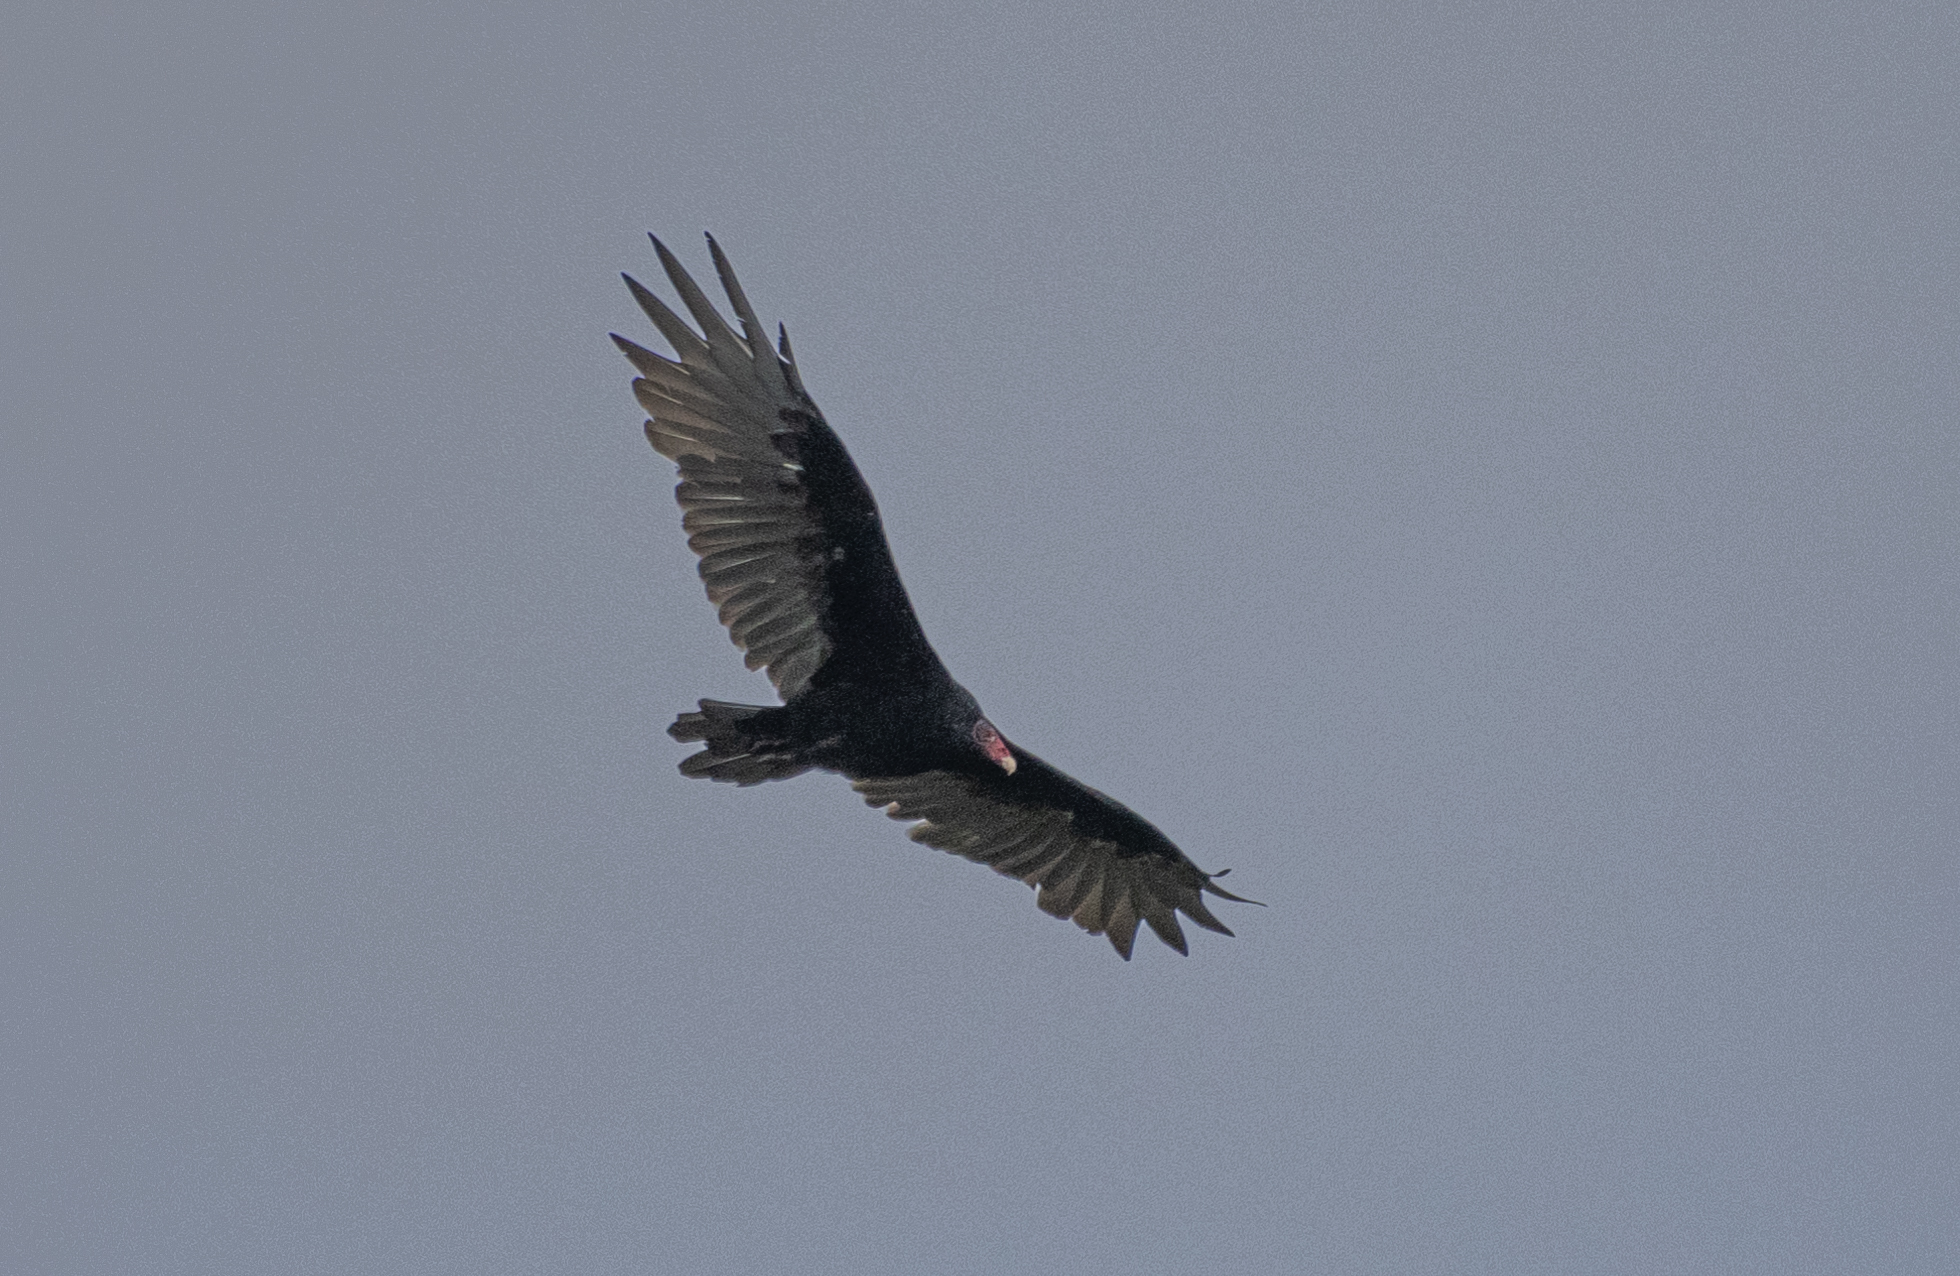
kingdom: Animalia
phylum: Chordata
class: Aves
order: Accipitriformes
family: Cathartidae
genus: Cathartes
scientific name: Cathartes aura
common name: Turkey vulture
